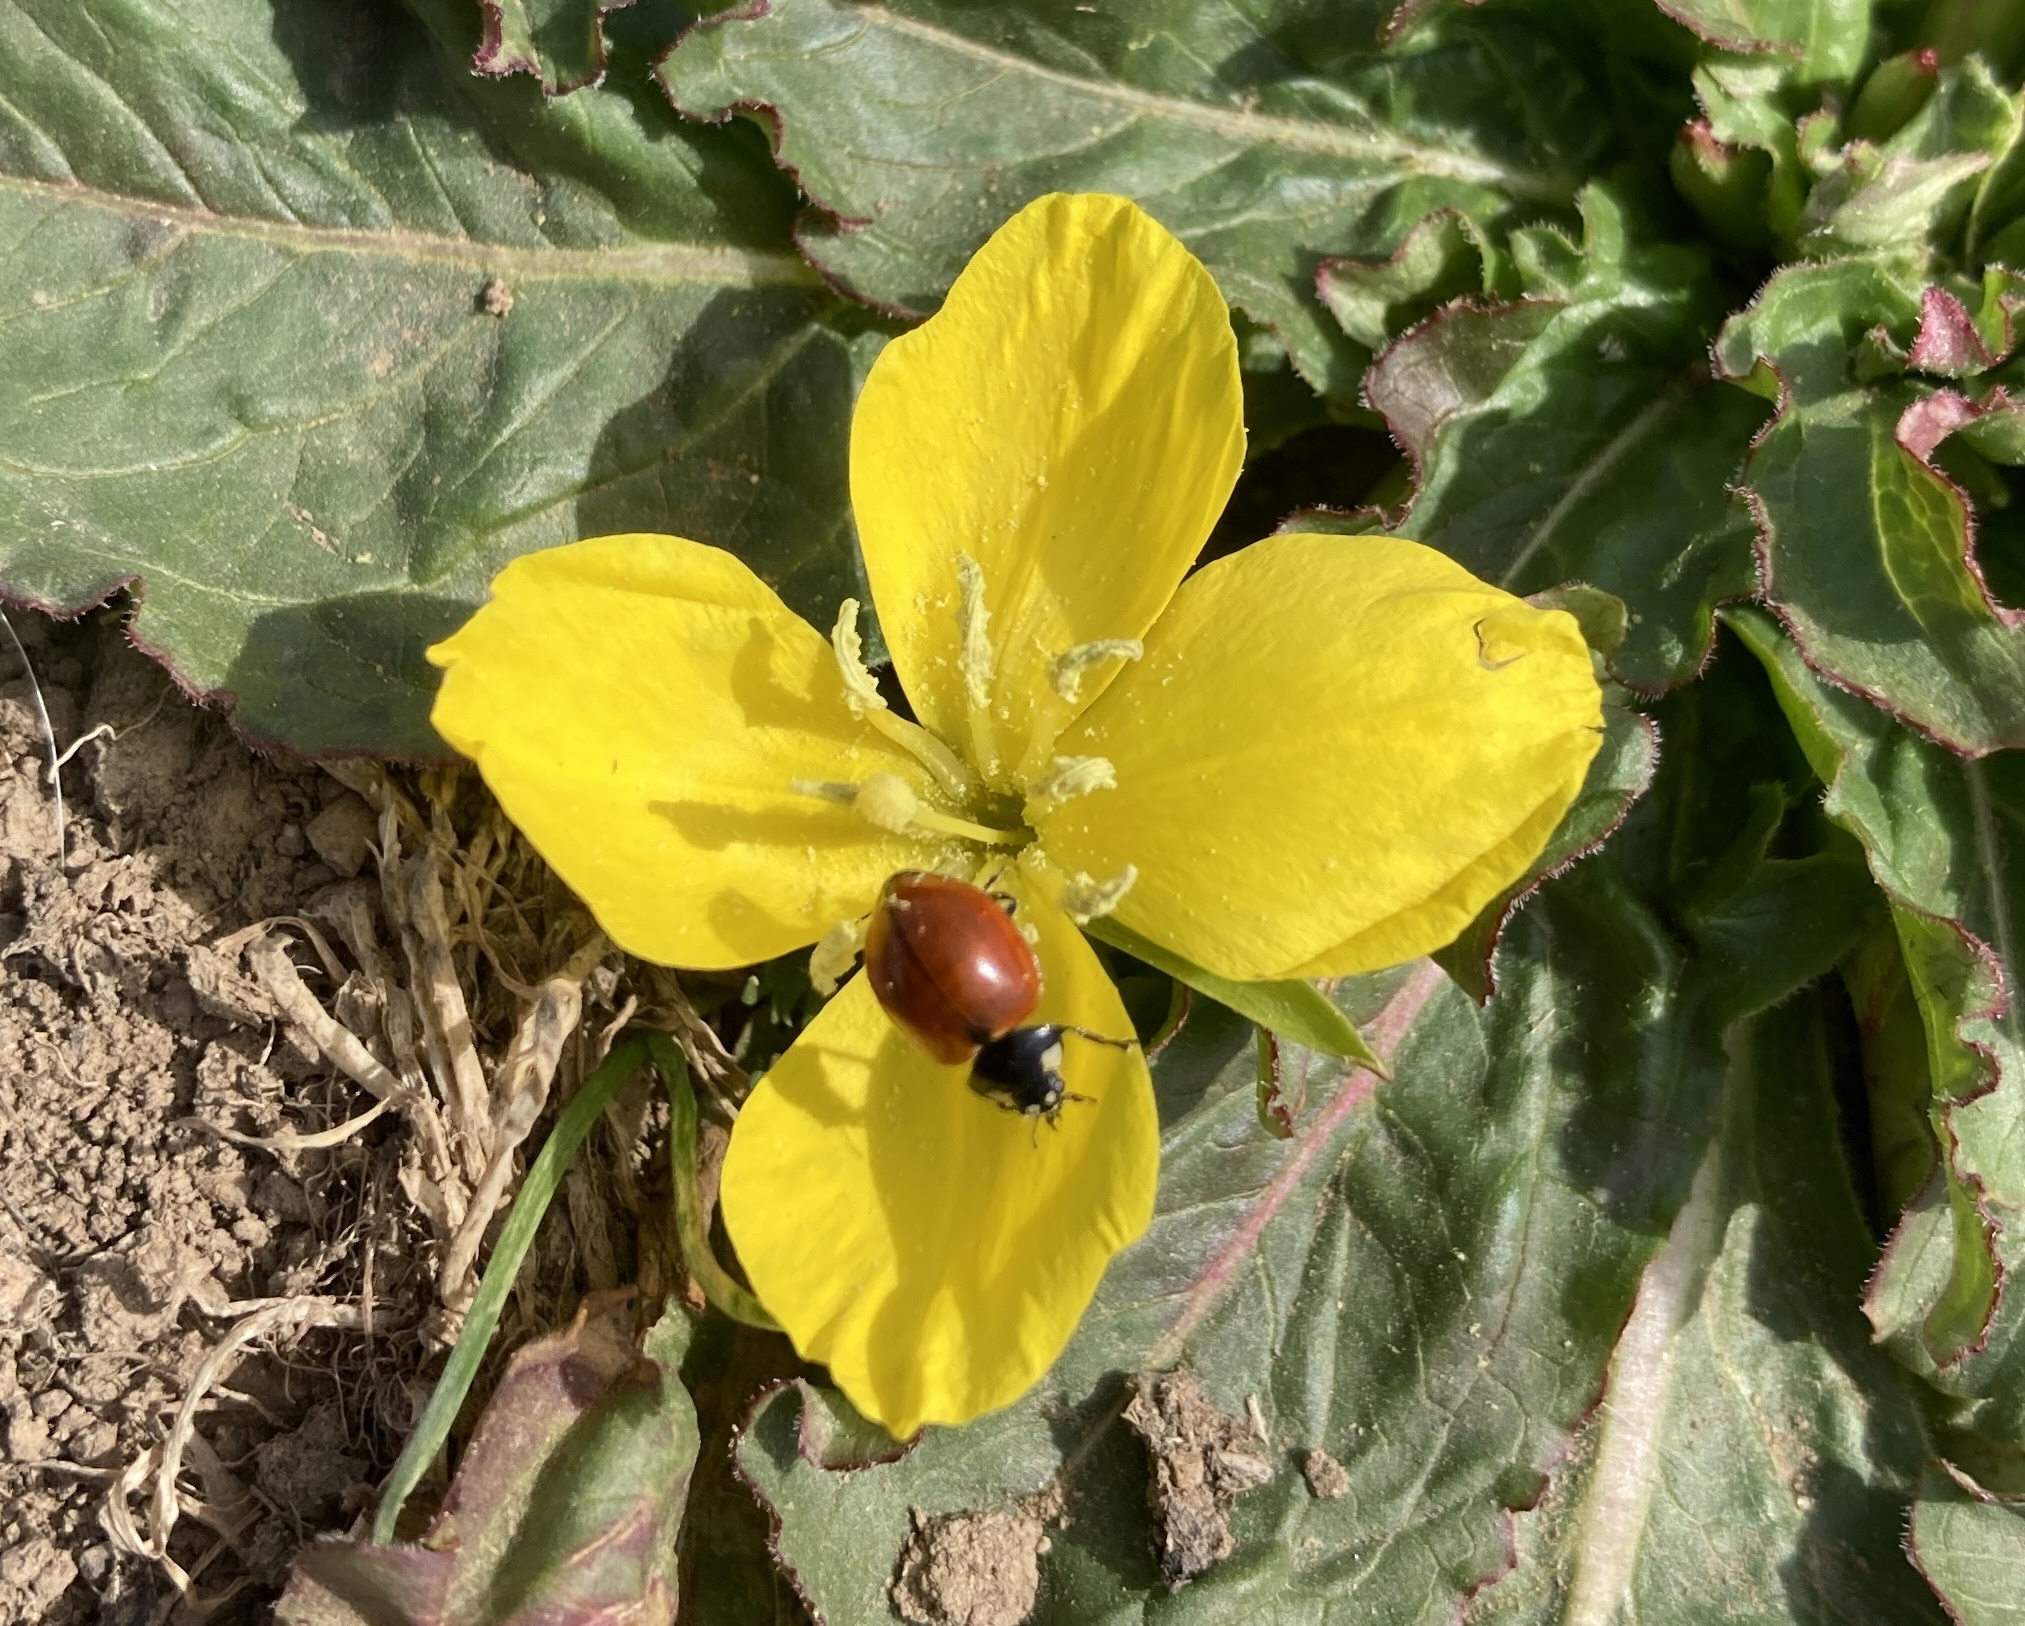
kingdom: Plantae
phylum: Tracheophyta
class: Magnoliopsida
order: Myrtales
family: Onagraceae
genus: Taraxia
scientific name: Taraxia ovata
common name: Goldeneggs
